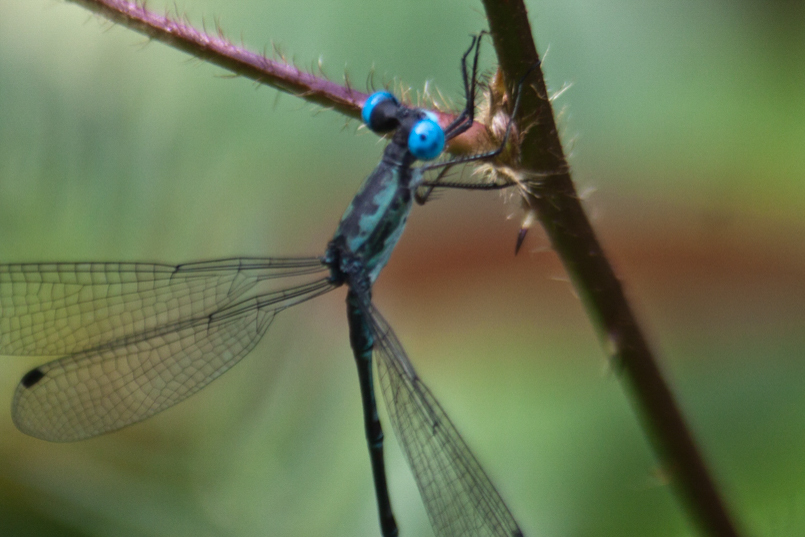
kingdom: Animalia
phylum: Arthropoda
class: Insecta
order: Odonata
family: Lestidae
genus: Lestes
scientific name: Lestes praemorsus
